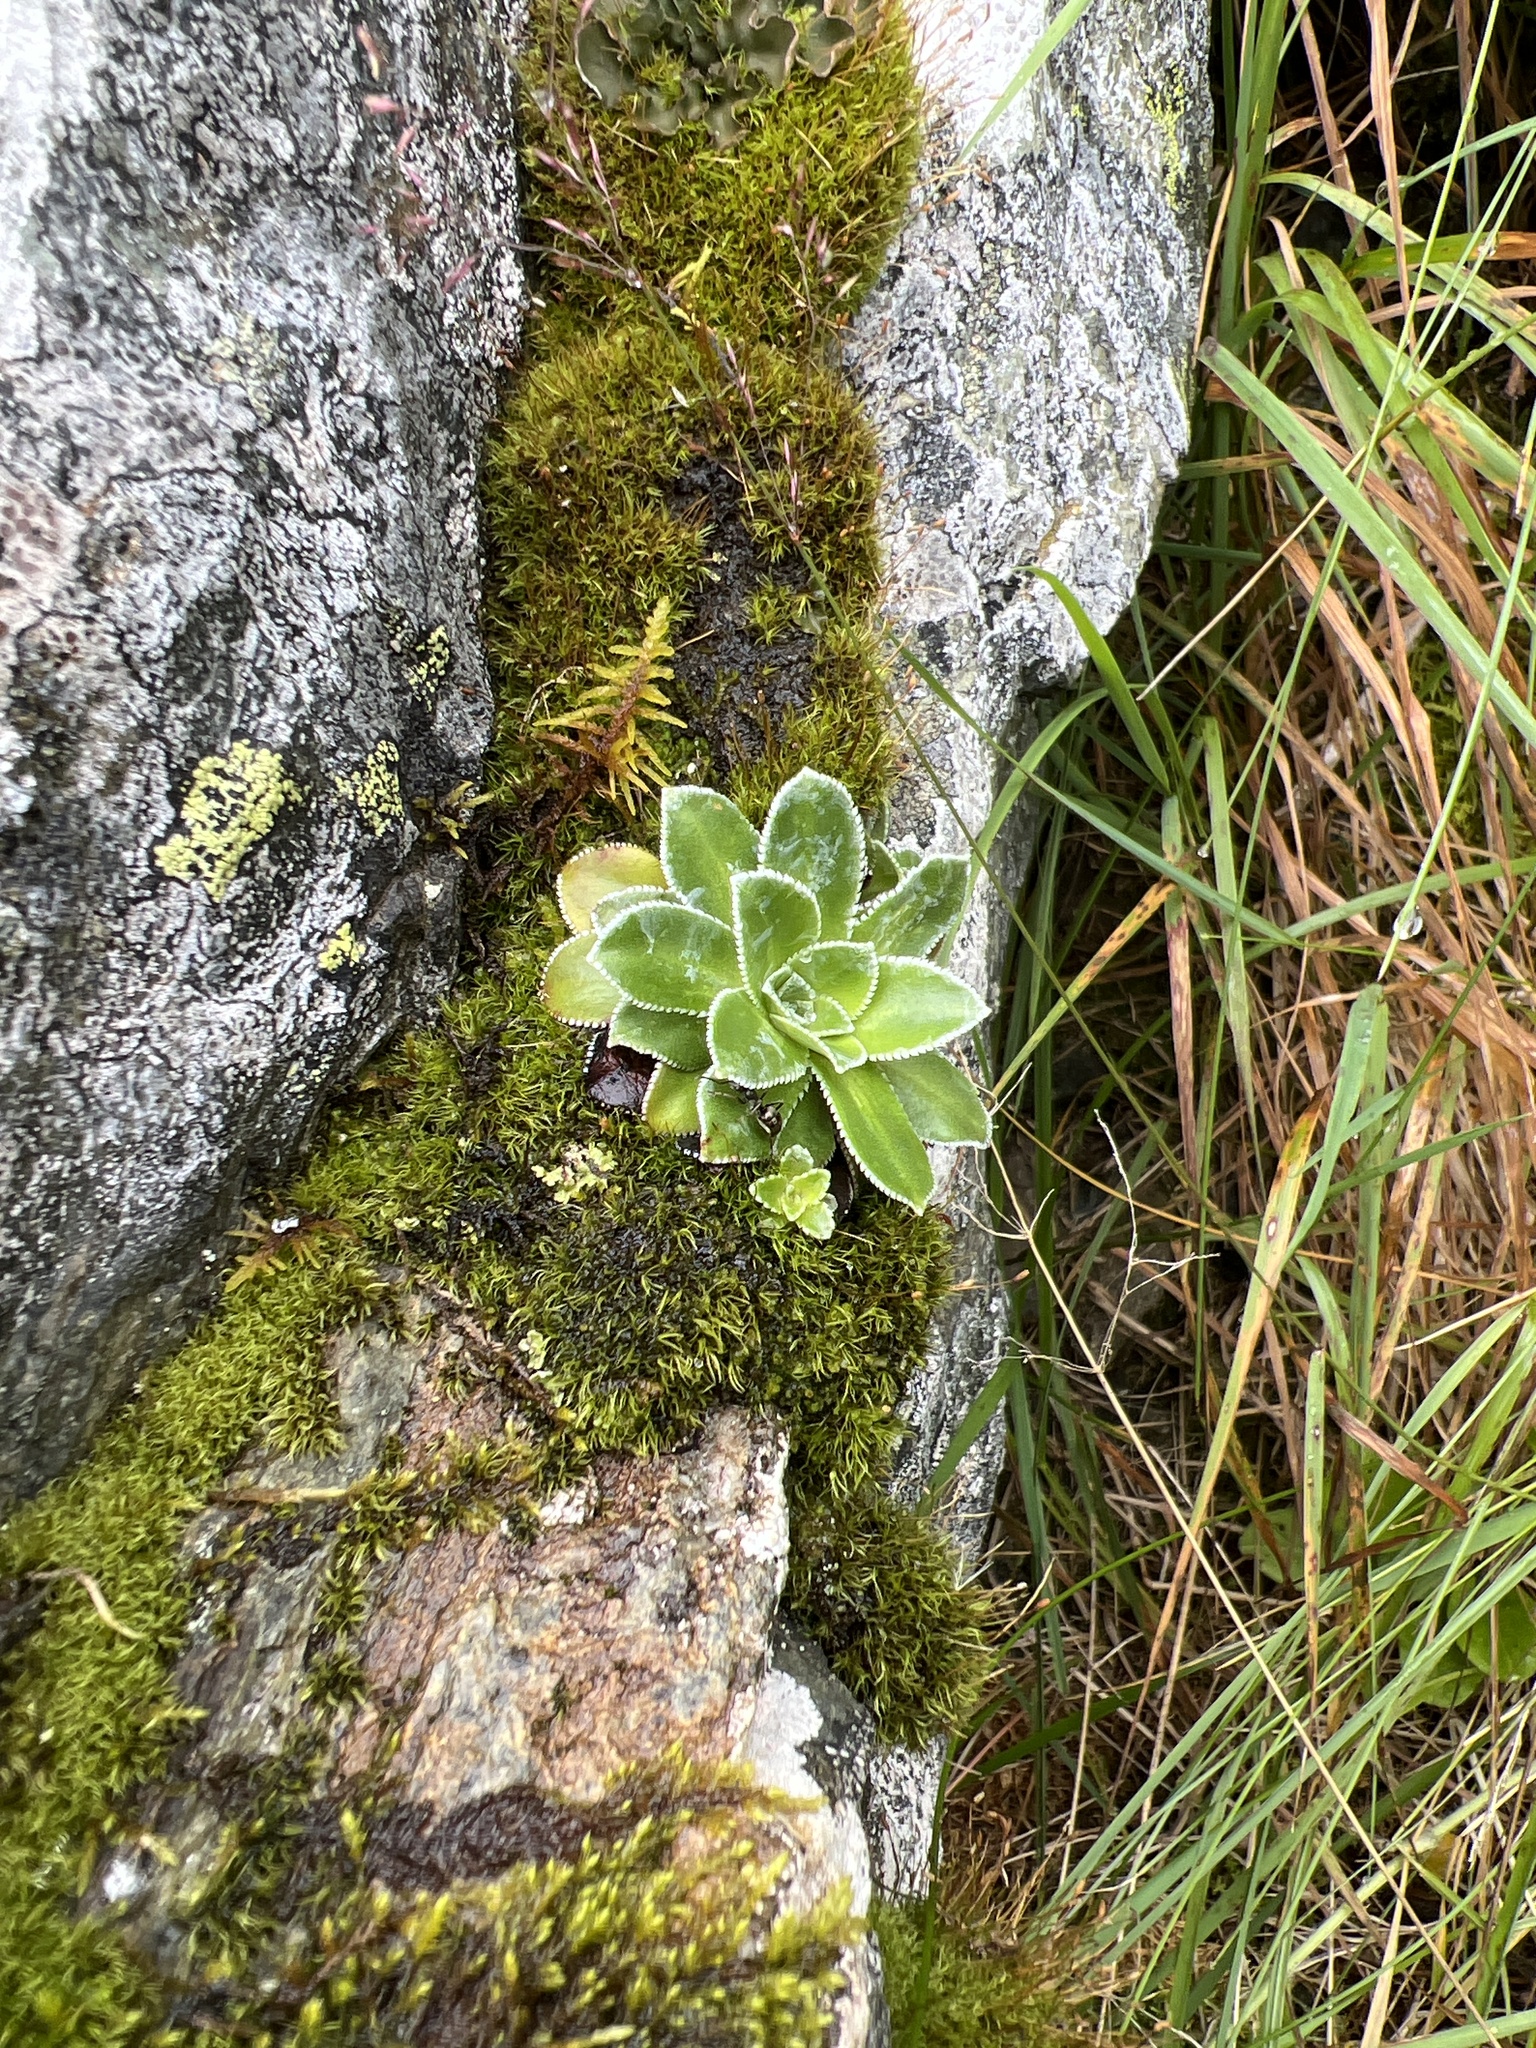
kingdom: Plantae
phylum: Tracheophyta
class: Magnoliopsida
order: Saxifragales
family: Saxifragaceae
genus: Saxifraga
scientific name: Saxifraga cotyledon
